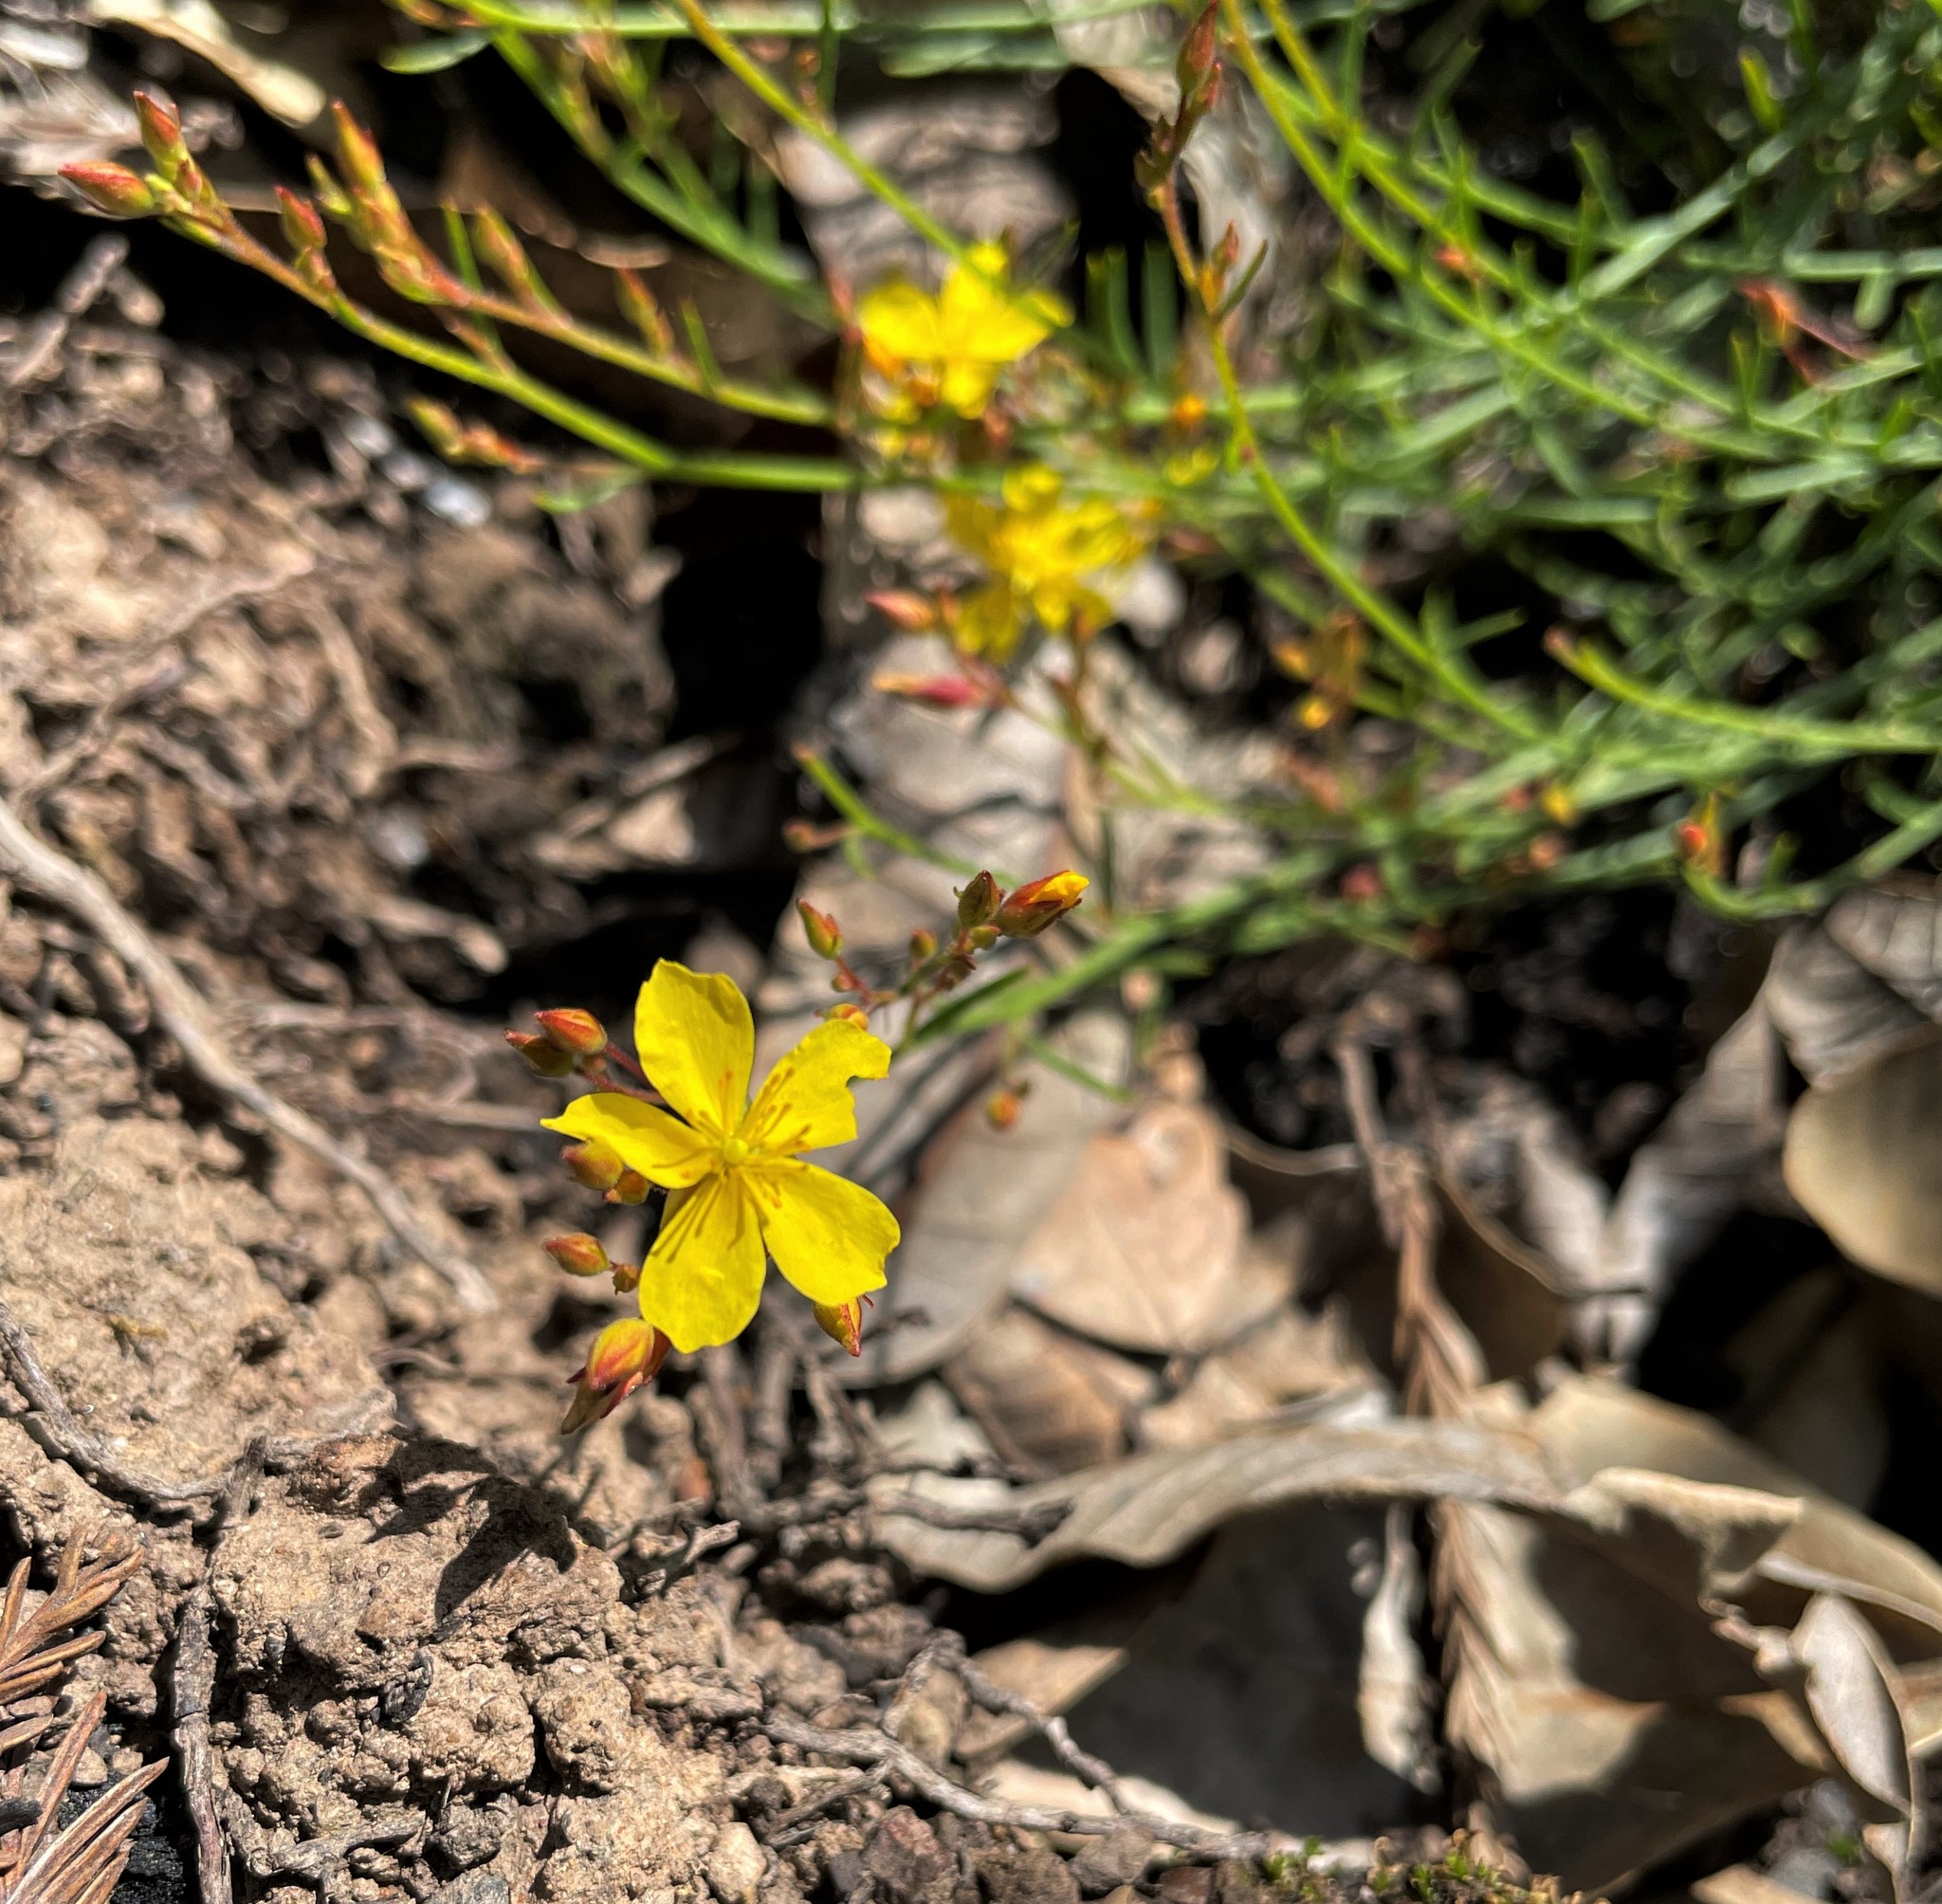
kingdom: Plantae
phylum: Tracheophyta
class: Magnoliopsida
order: Malvales
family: Cistaceae
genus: Crocanthemum
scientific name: Crocanthemum scoparium
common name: Broom-rose
